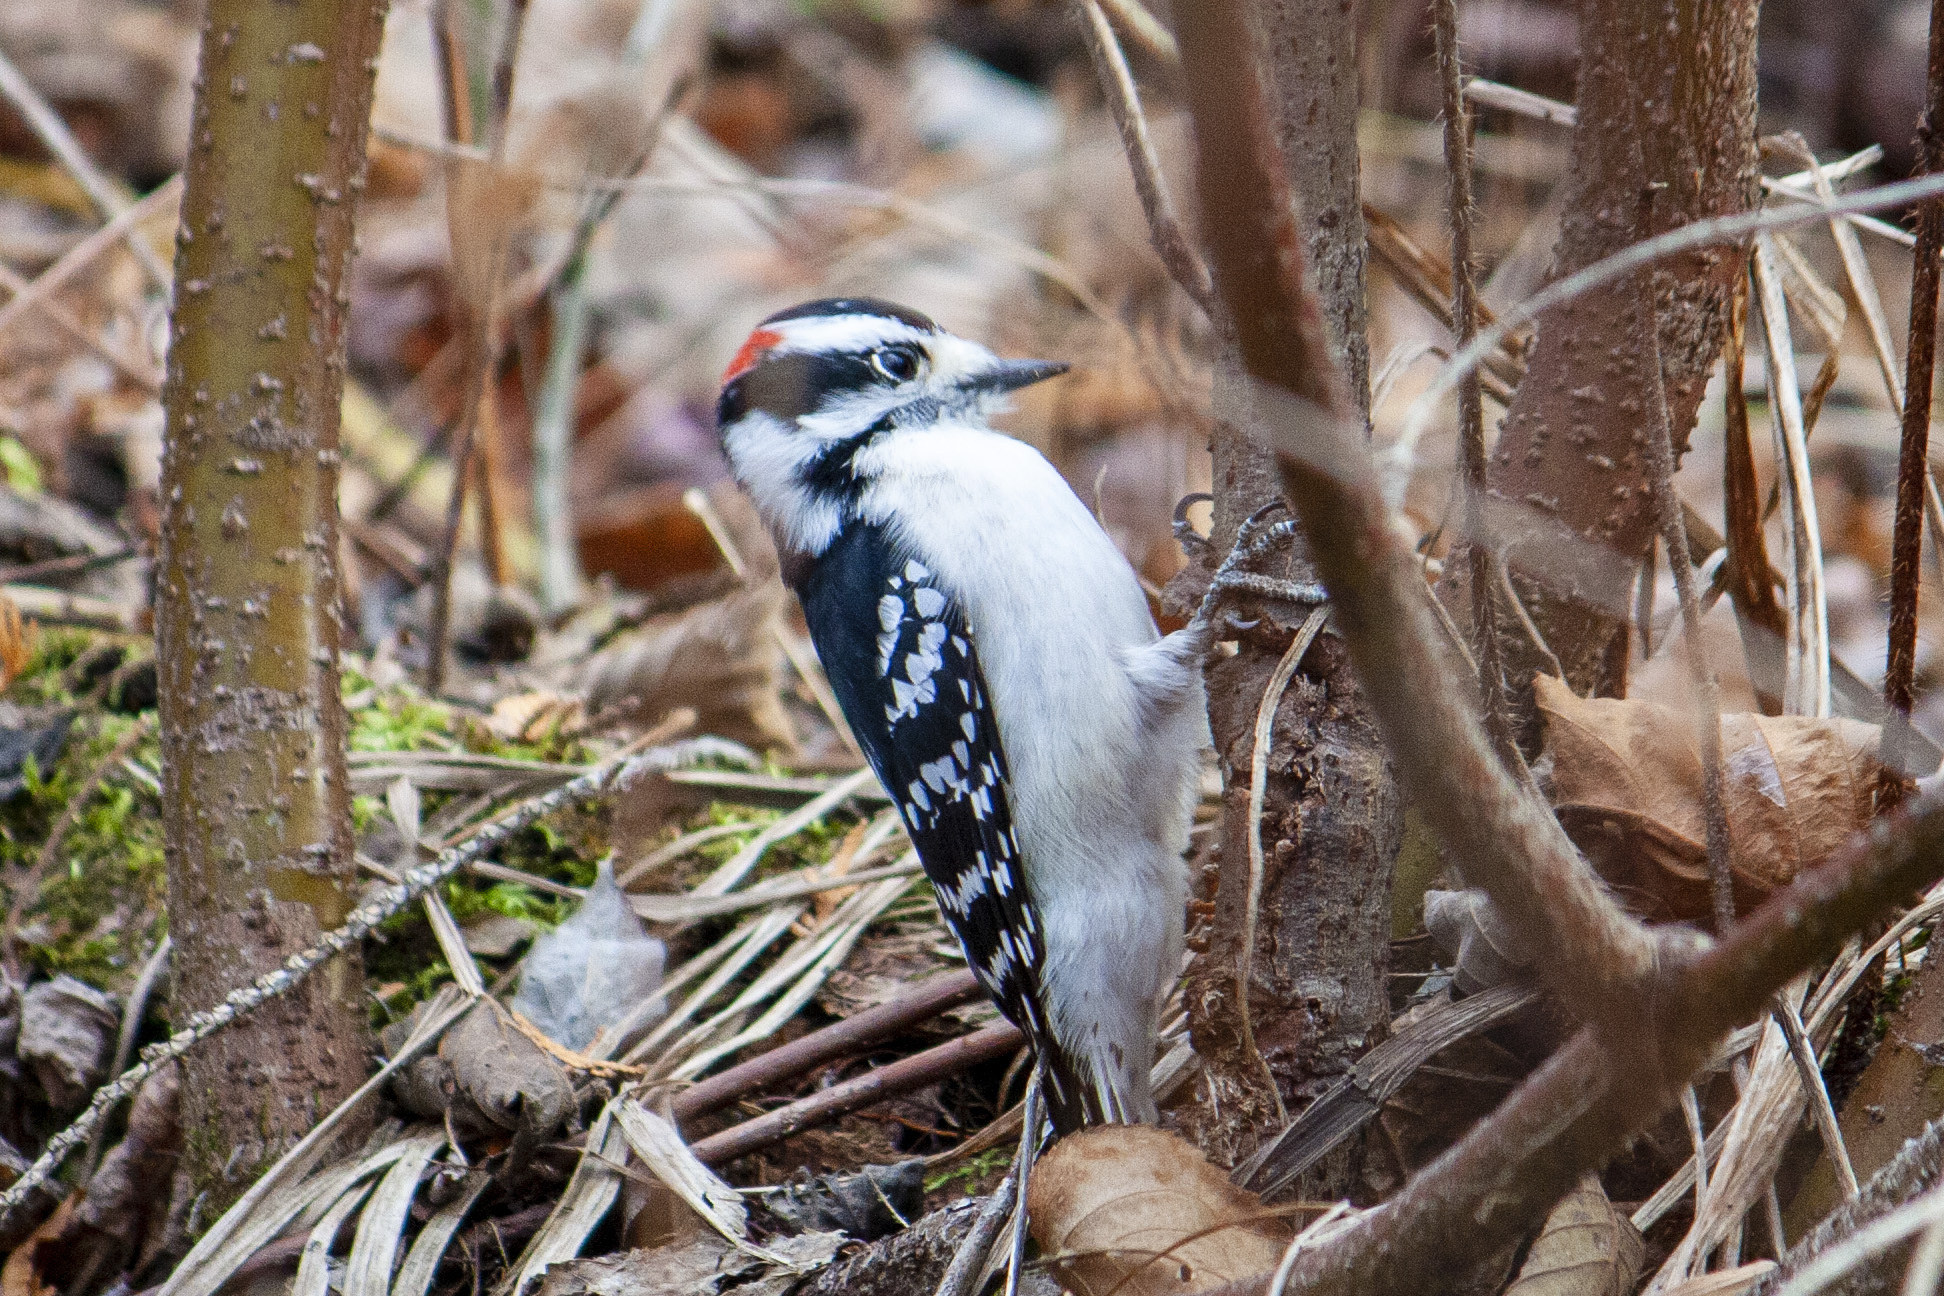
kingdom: Animalia
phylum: Chordata
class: Aves
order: Piciformes
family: Picidae
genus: Dryobates
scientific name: Dryobates pubescens
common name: Downy woodpecker
